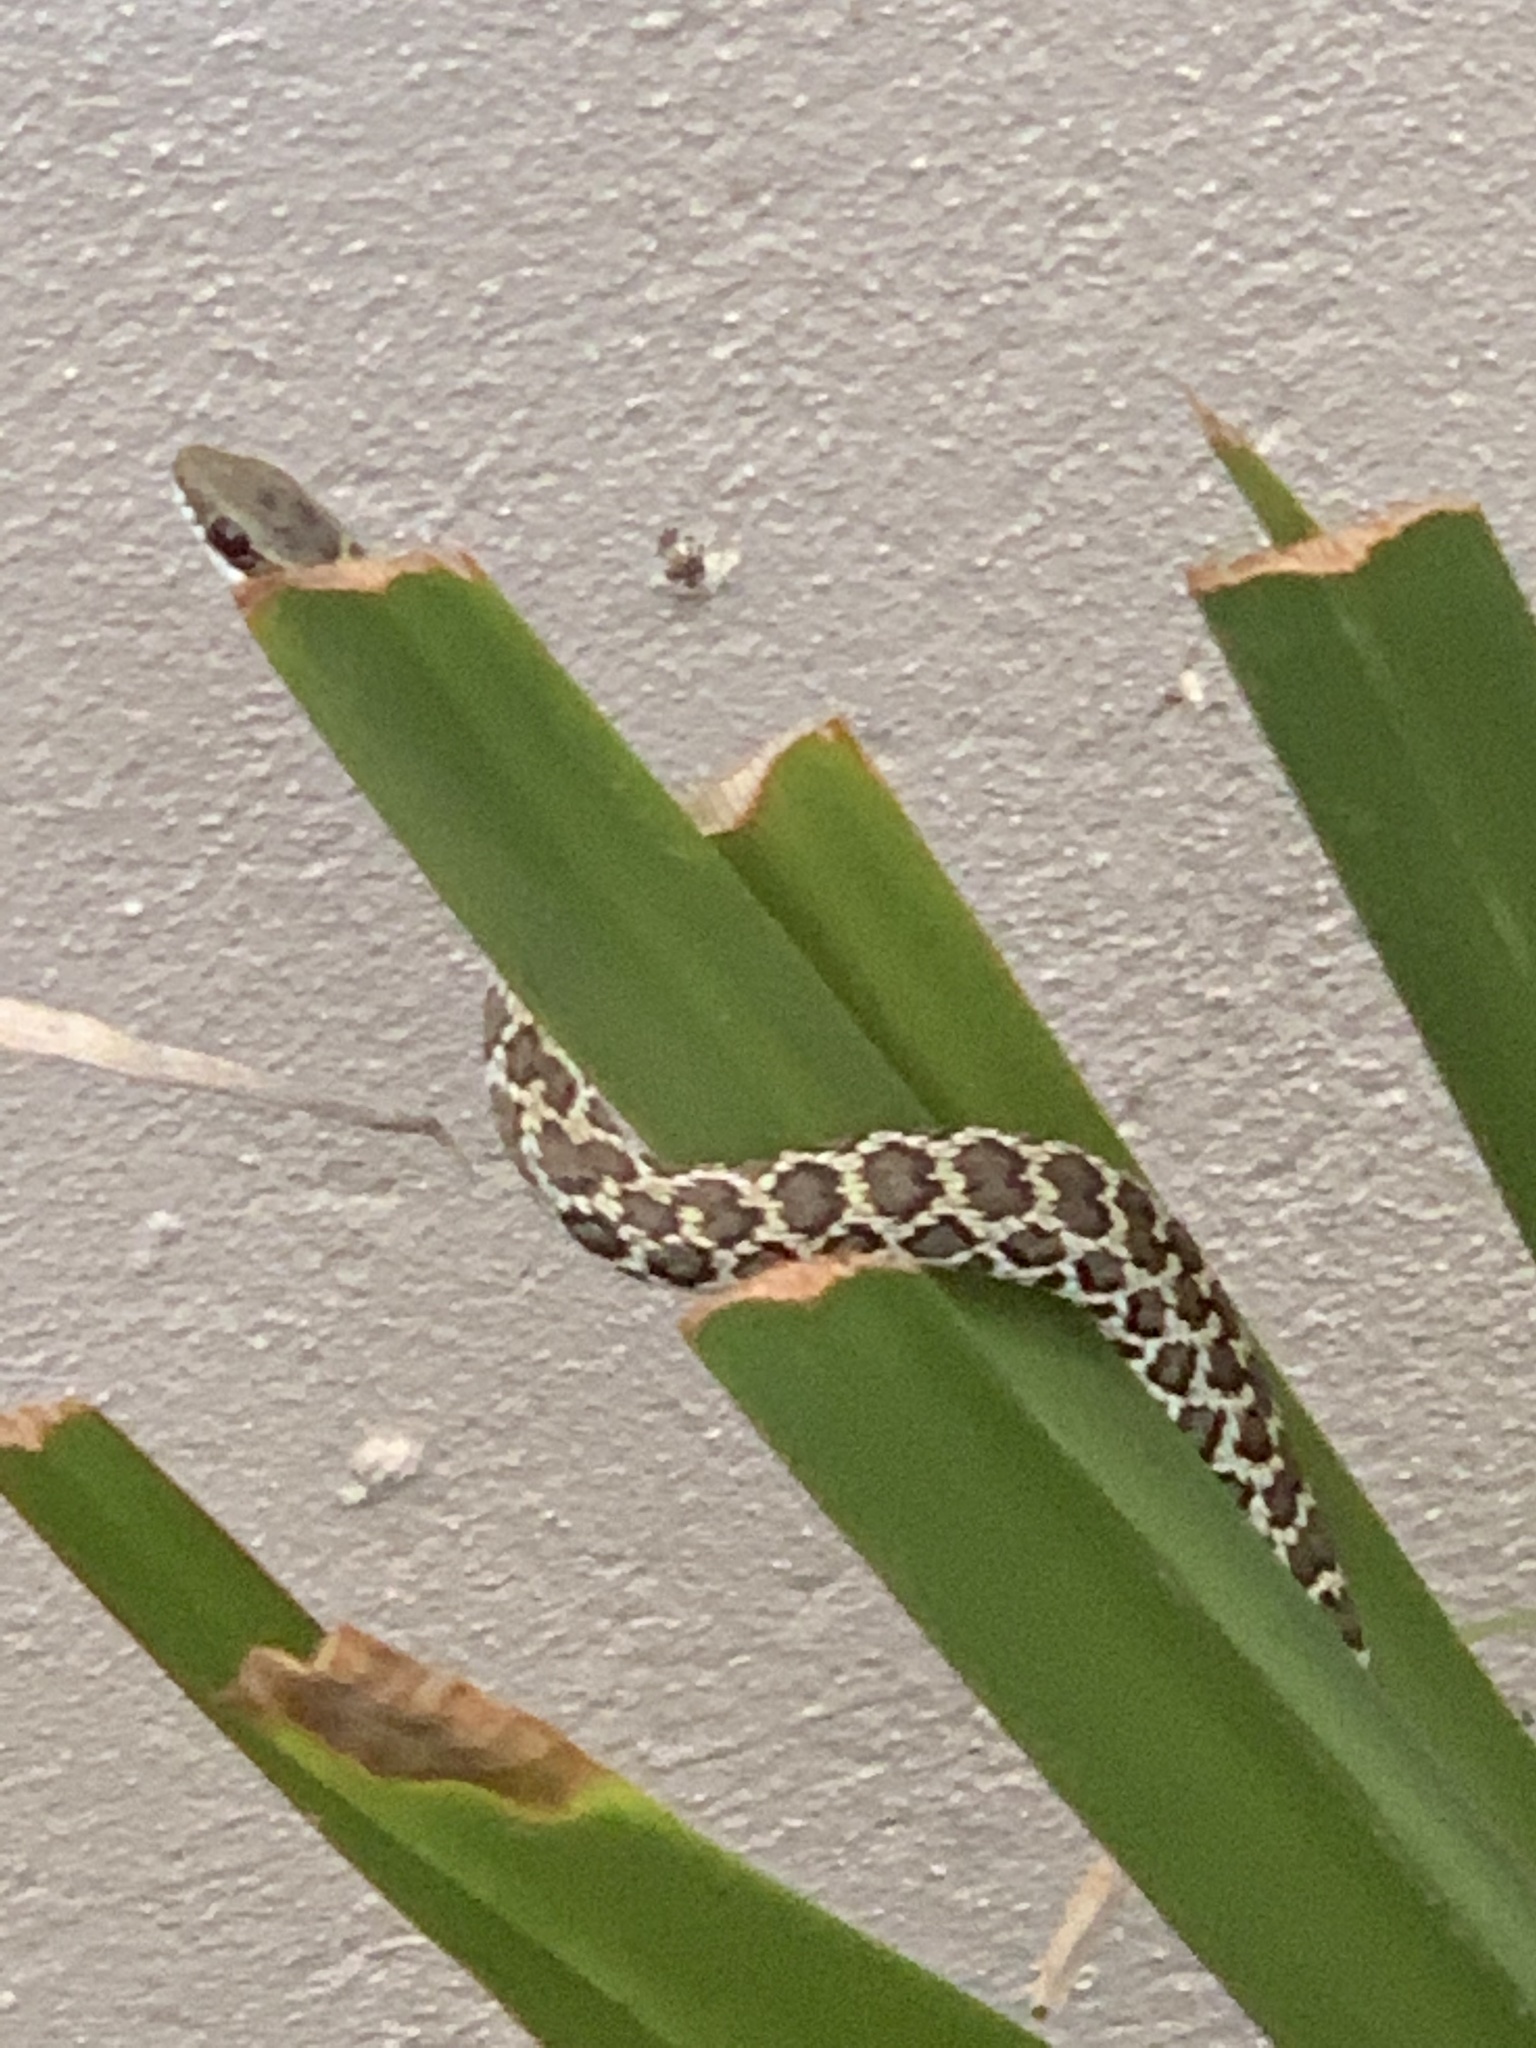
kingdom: Animalia
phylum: Chordata
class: Squamata
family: Psammophiidae
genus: Psammophylax
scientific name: Psammophylax rhombeatus
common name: Rhombic skaapsteker
